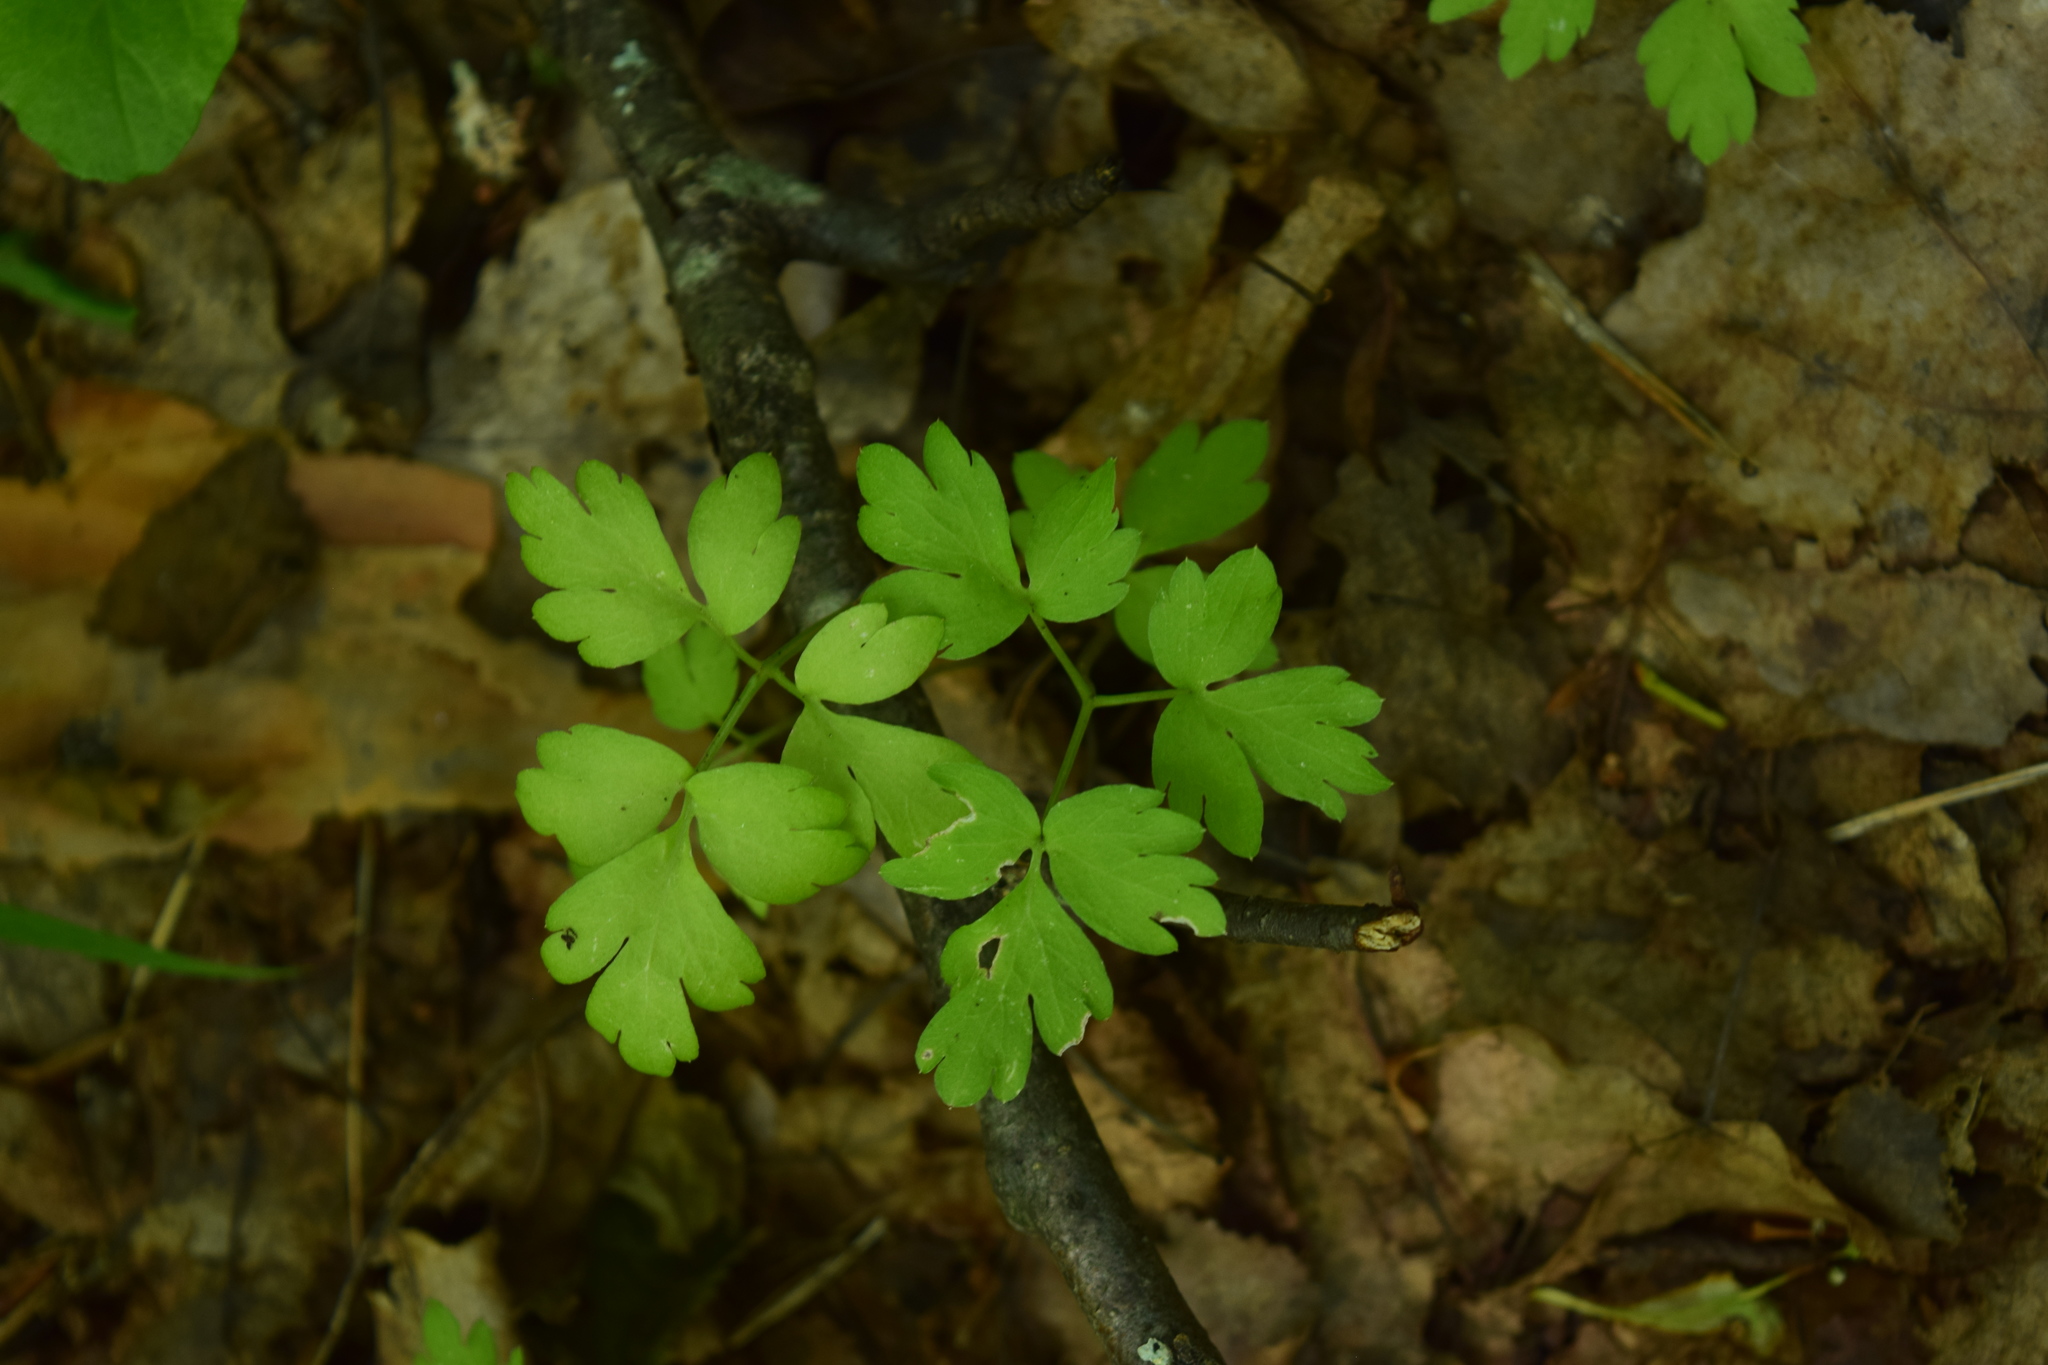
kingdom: Plantae
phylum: Tracheophyta
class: Magnoliopsida
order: Dipsacales
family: Viburnaceae
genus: Adoxa
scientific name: Adoxa moschatellina
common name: Moschatel
